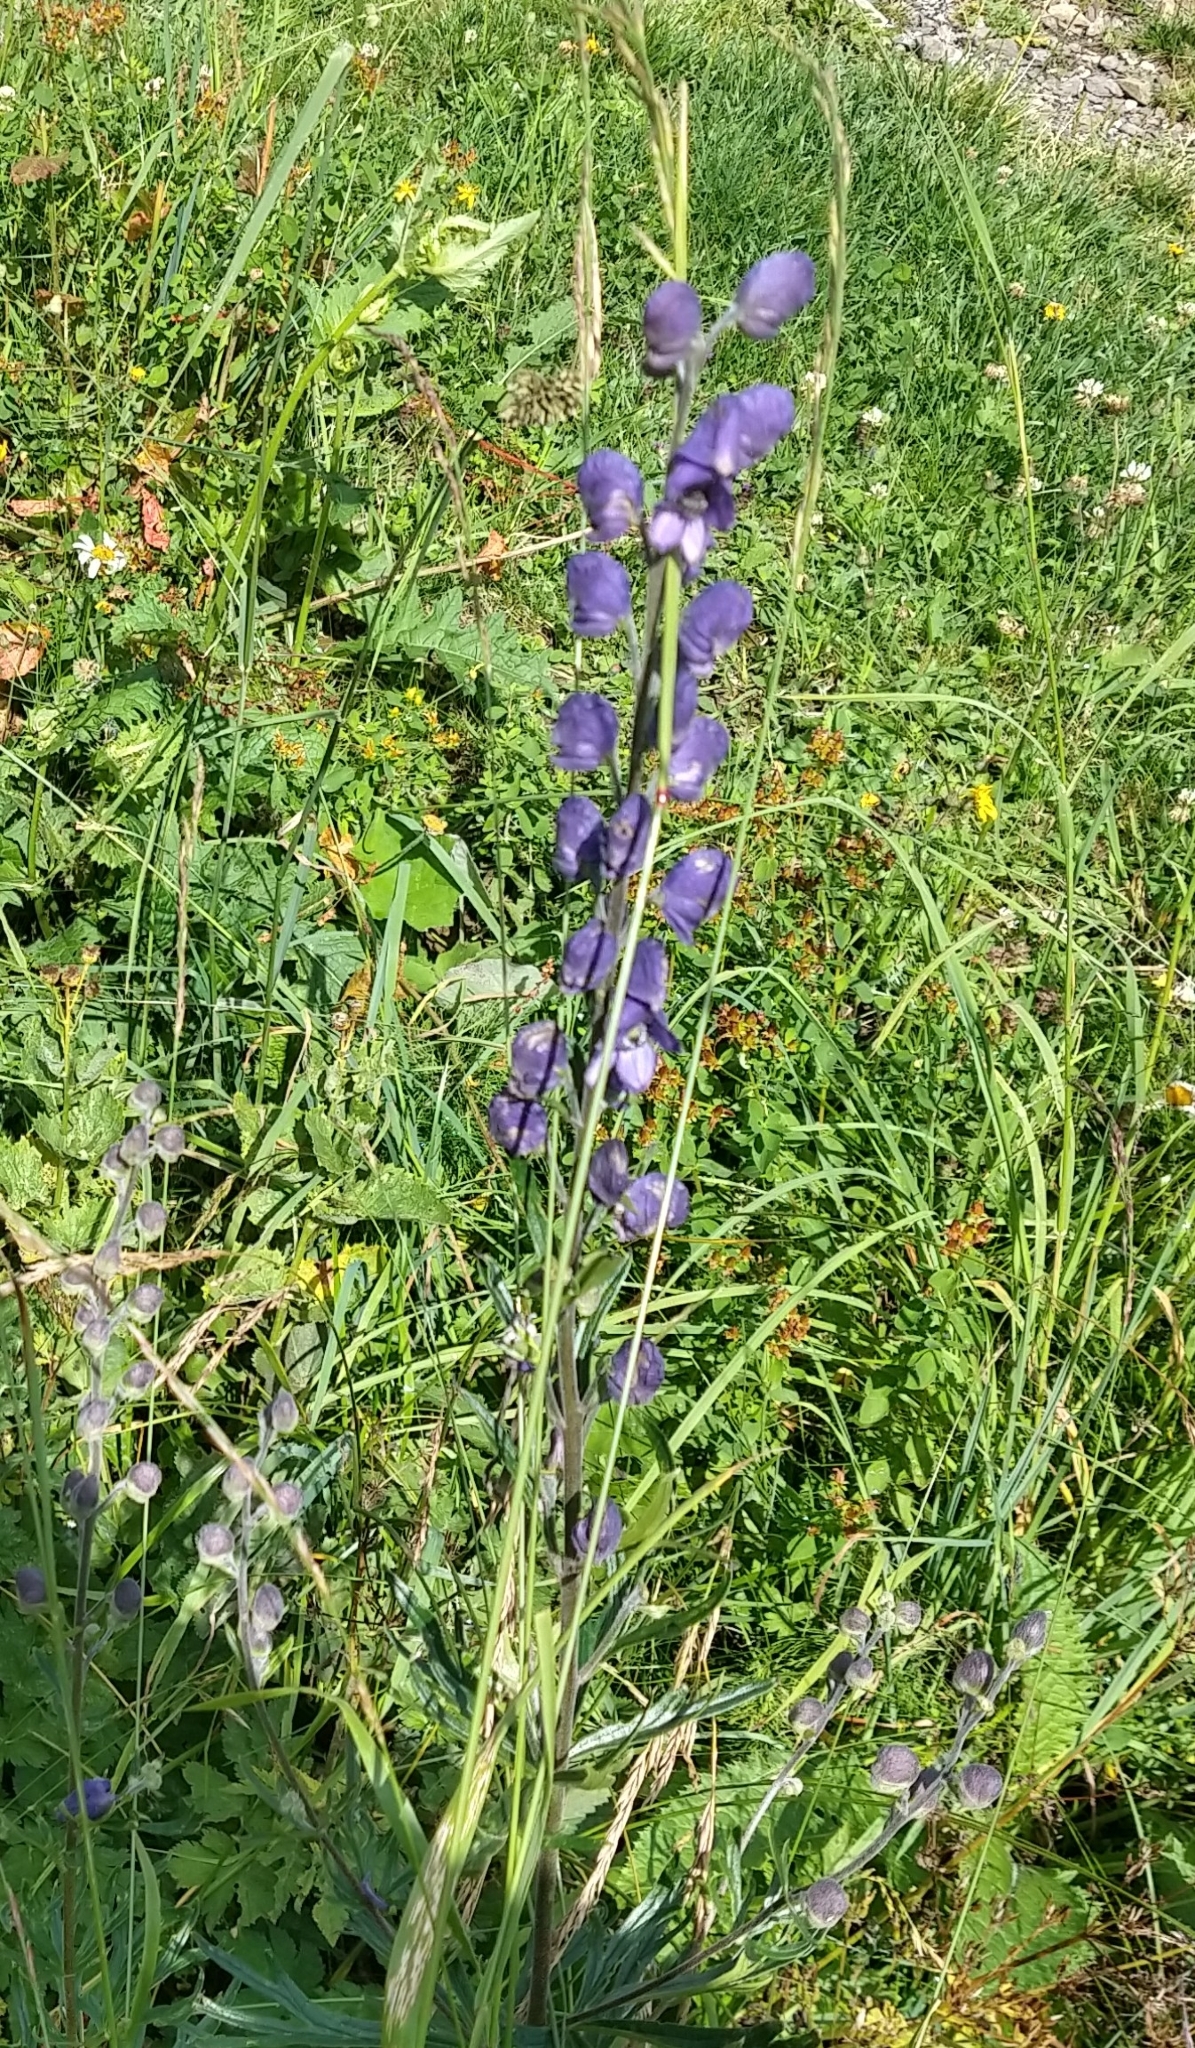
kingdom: Plantae
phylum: Tracheophyta
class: Magnoliopsida
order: Ranunculales
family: Ranunculaceae
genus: Aconitum
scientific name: Aconitum napellus
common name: Garden monkshood
